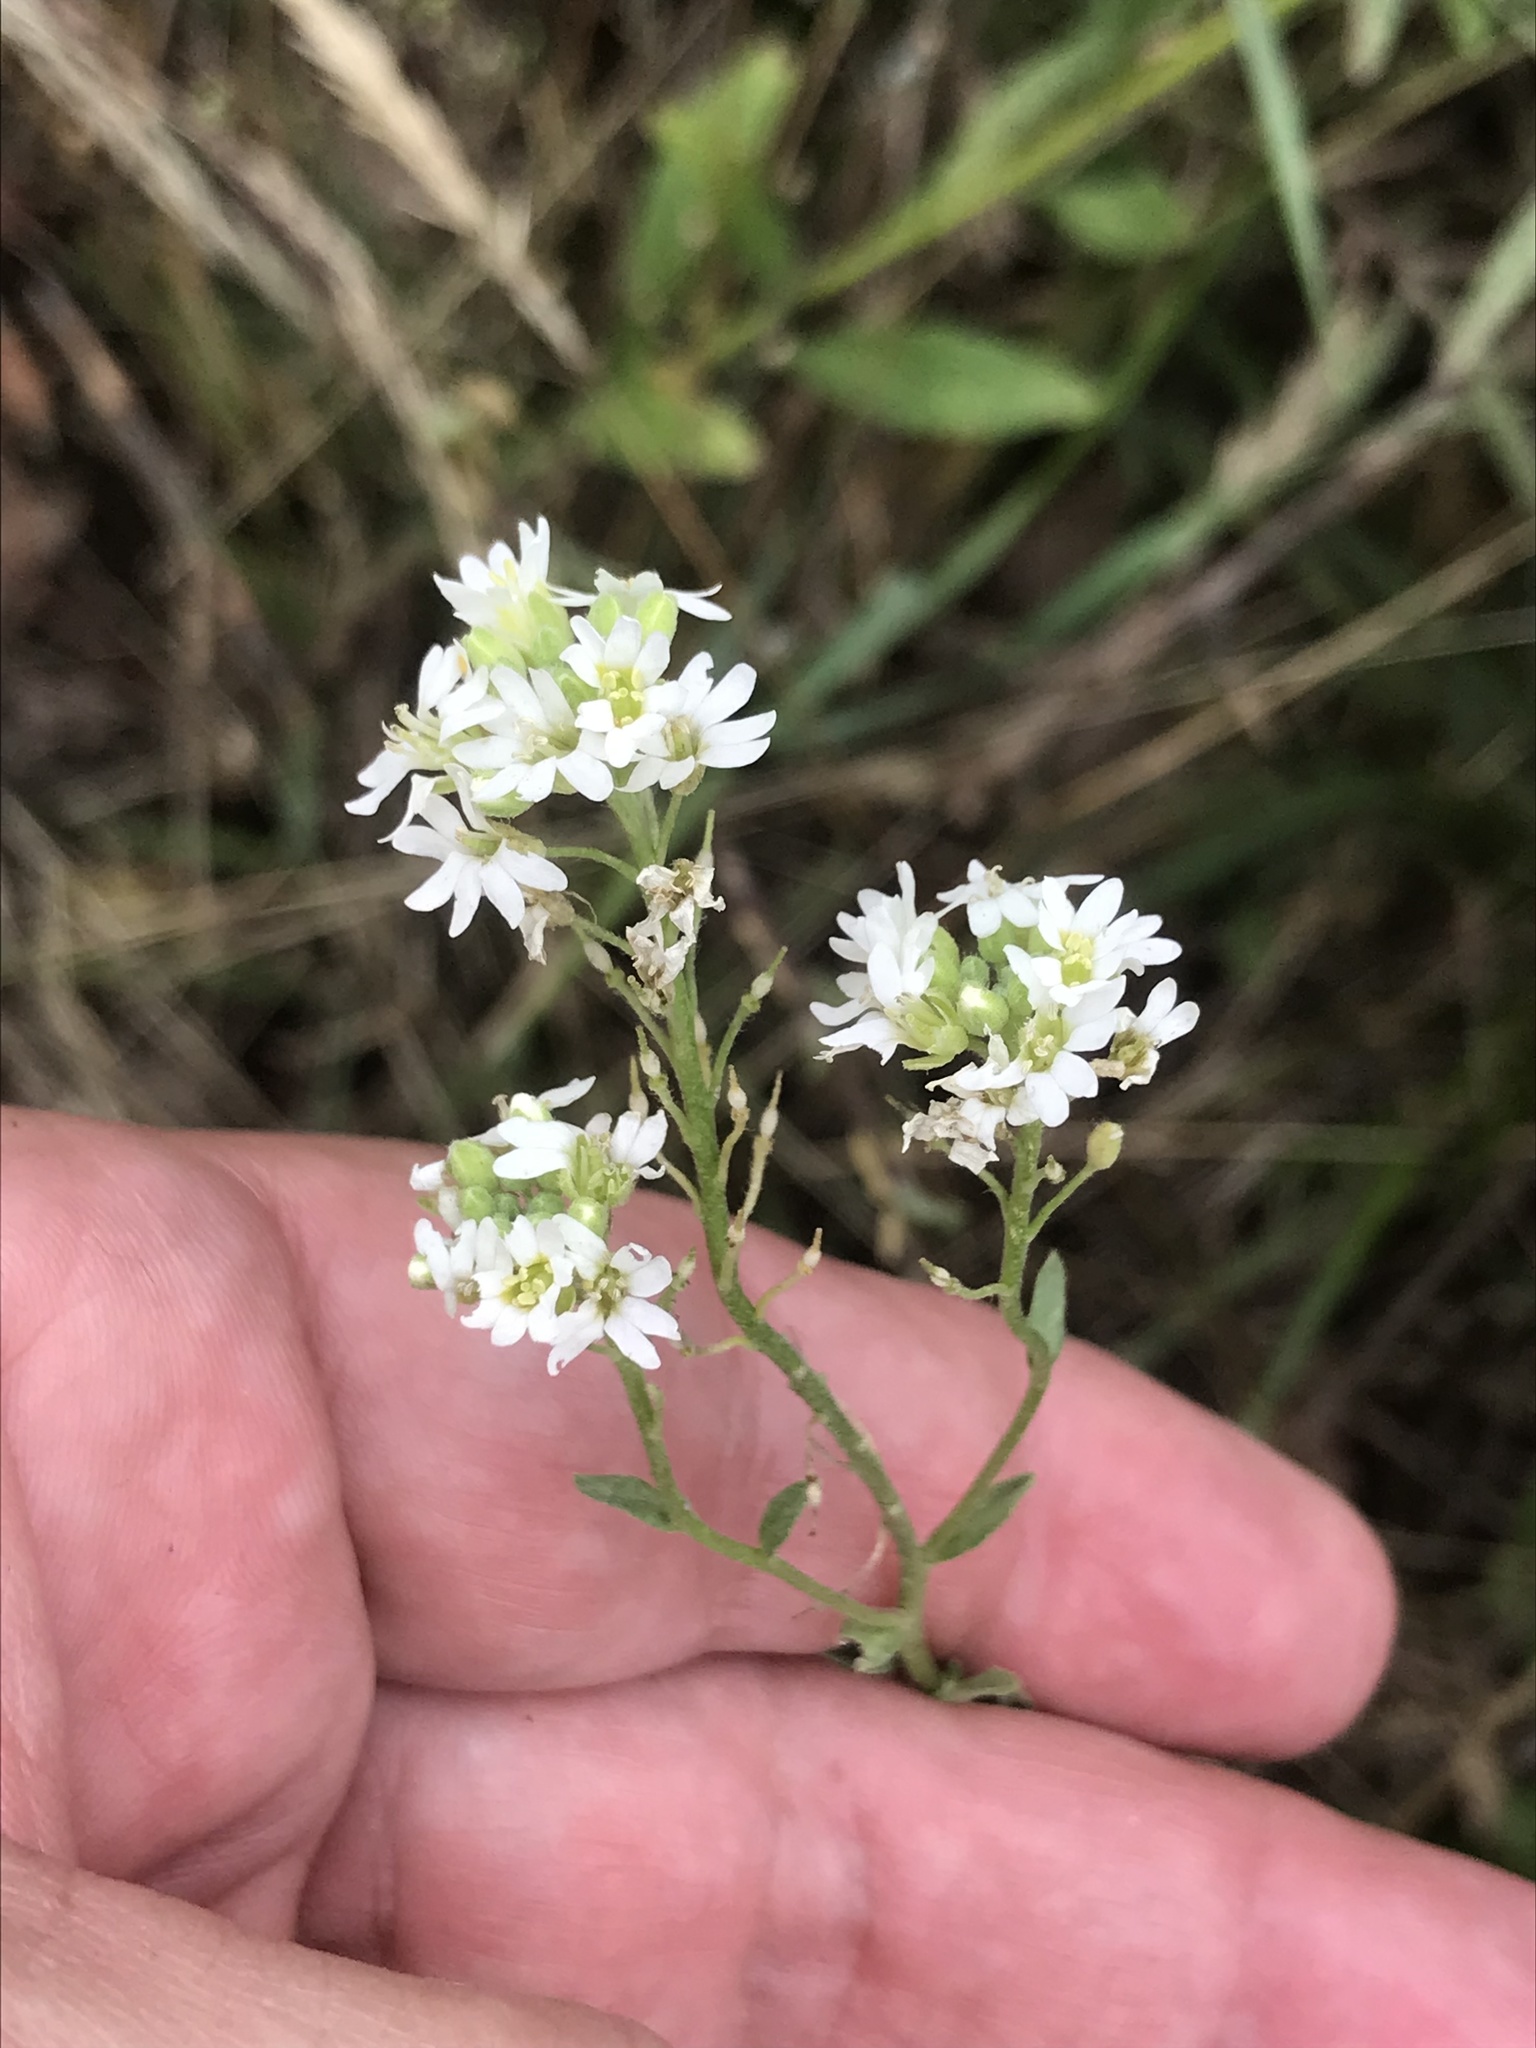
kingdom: Plantae
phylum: Tracheophyta
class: Magnoliopsida
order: Brassicales
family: Brassicaceae
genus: Berteroa
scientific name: Berteroa incana
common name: Hoary alison
